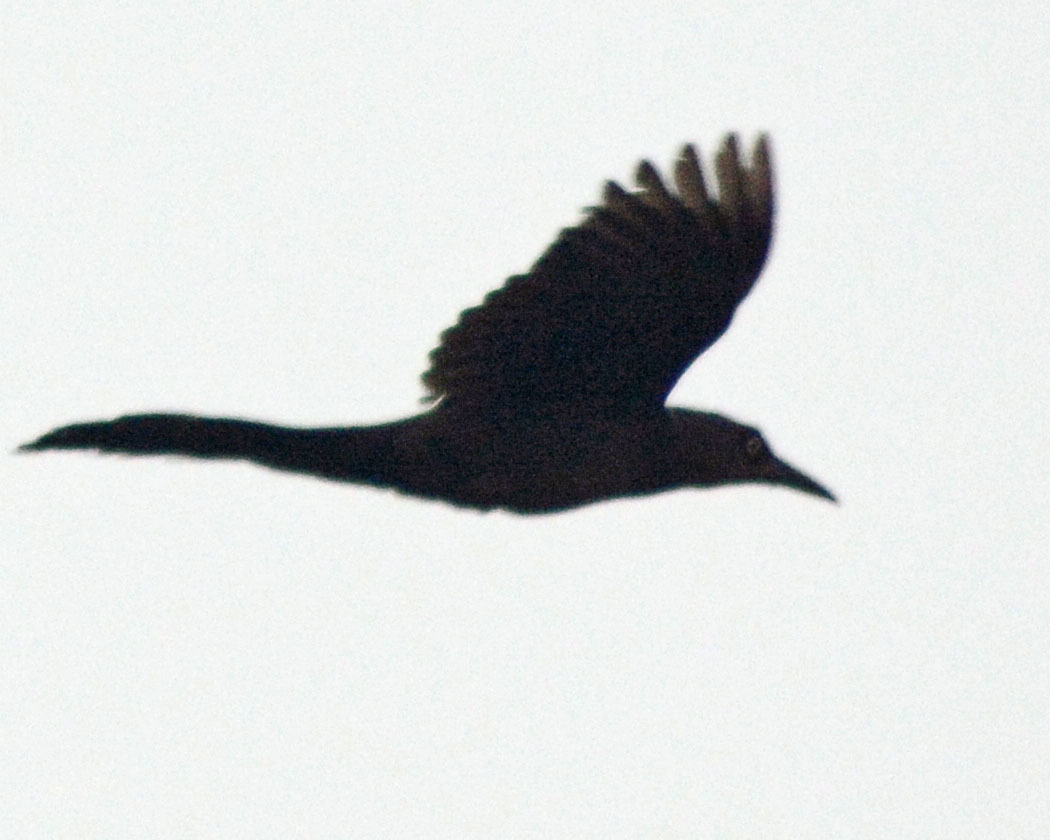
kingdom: Animalia
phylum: Chordata
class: Aves
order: Passeriformes
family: Icteridae
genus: Quiscalus
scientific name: Quiscalus mexicanus
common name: Great-tailed grackle
